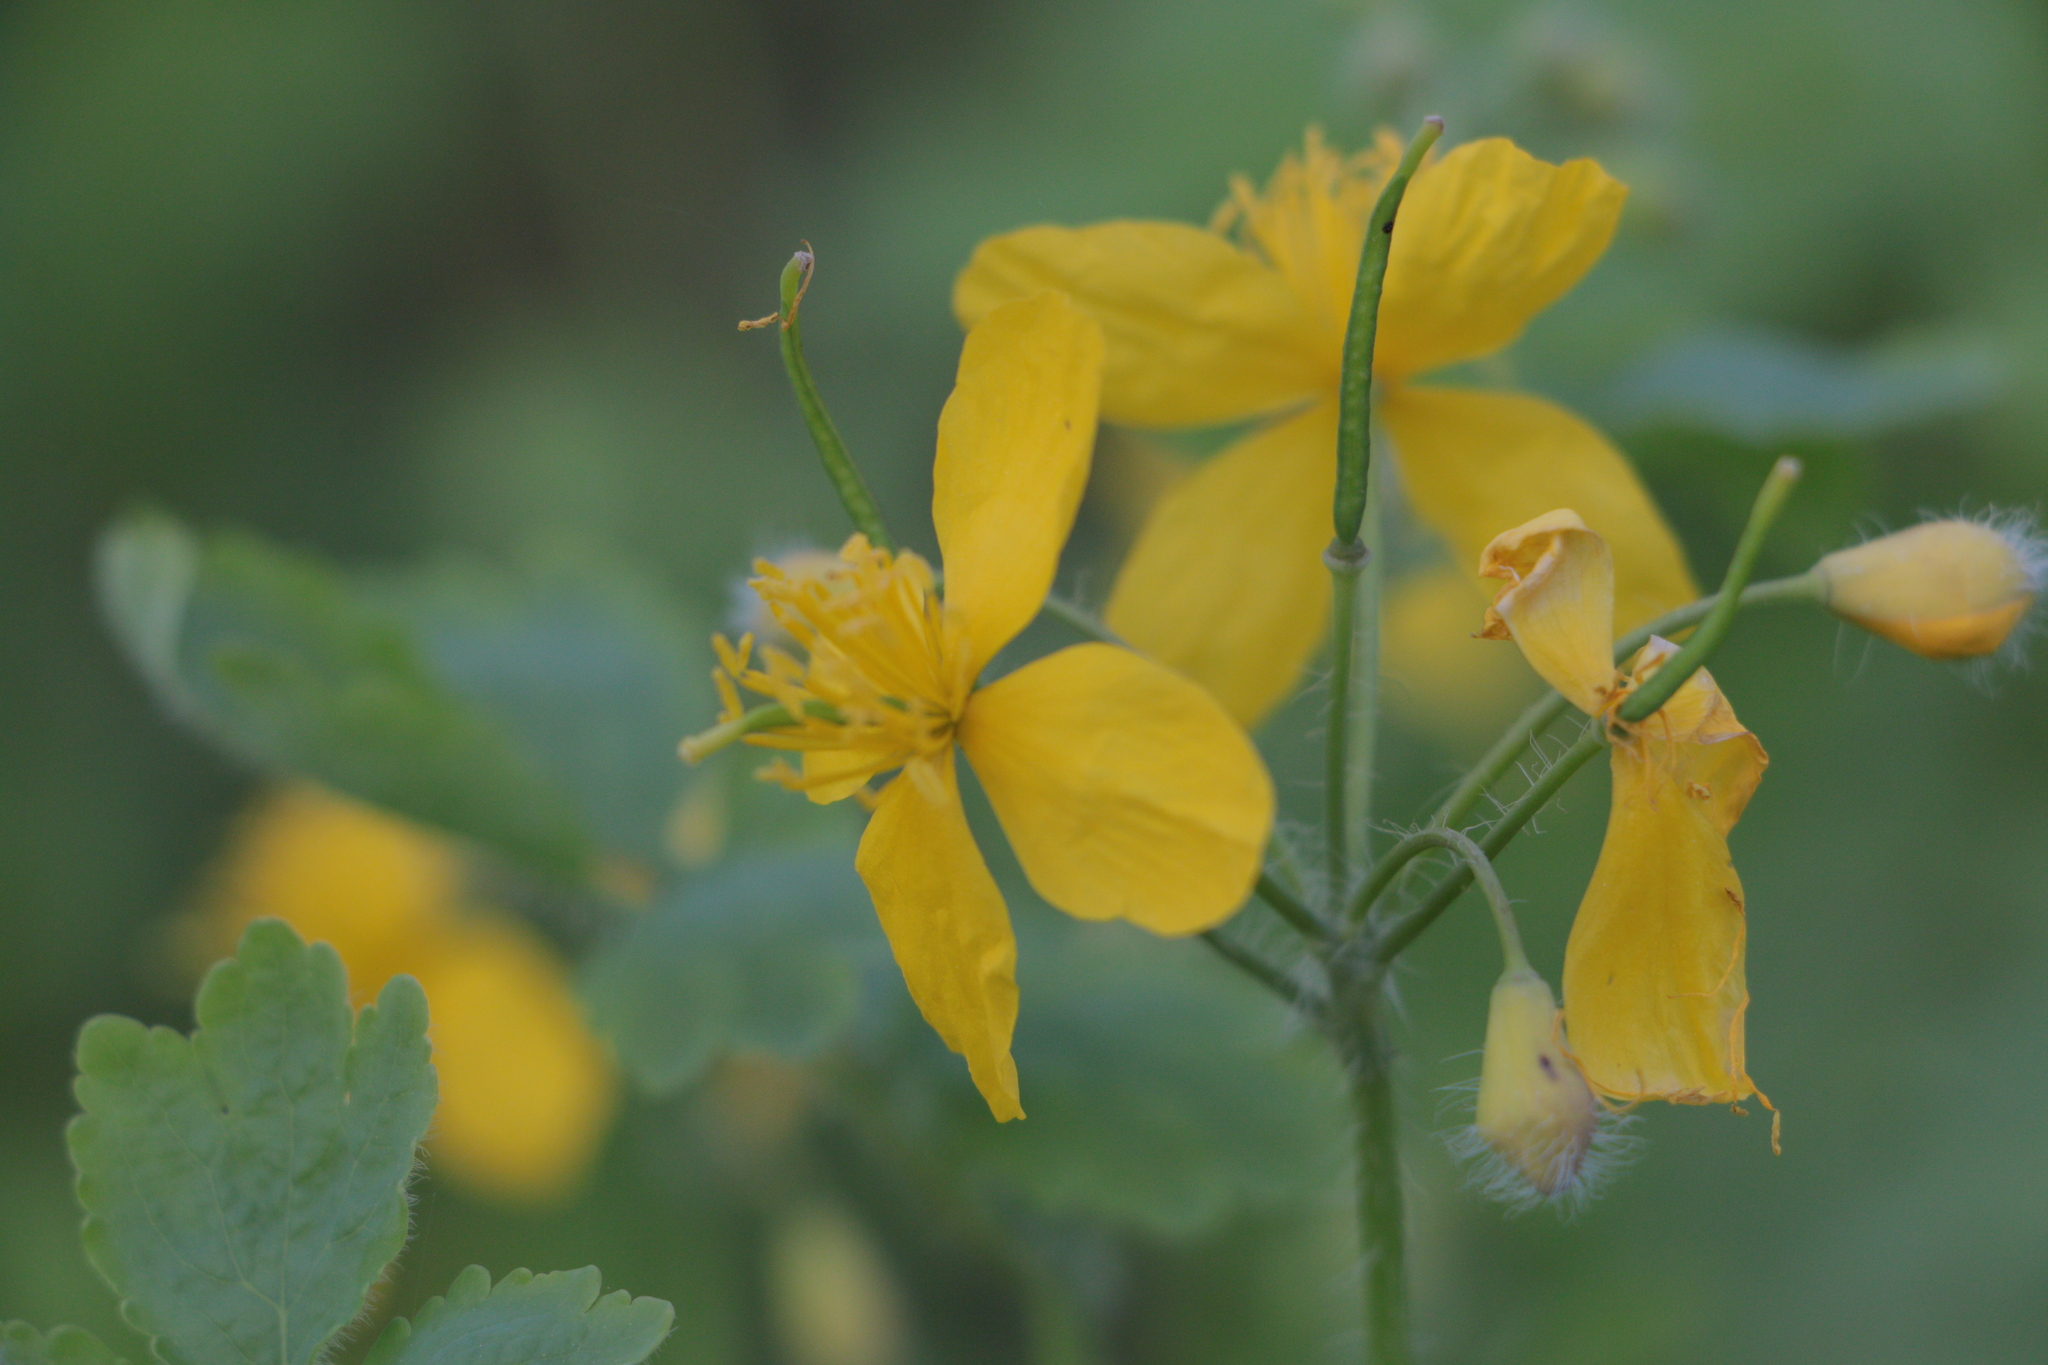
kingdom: Plantae
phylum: Tracheophyta
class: Magnoliopsida
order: Ranunculales
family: Papaveraceae
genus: Chelidonium
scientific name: Chelidonium majus
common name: Greater celandine
